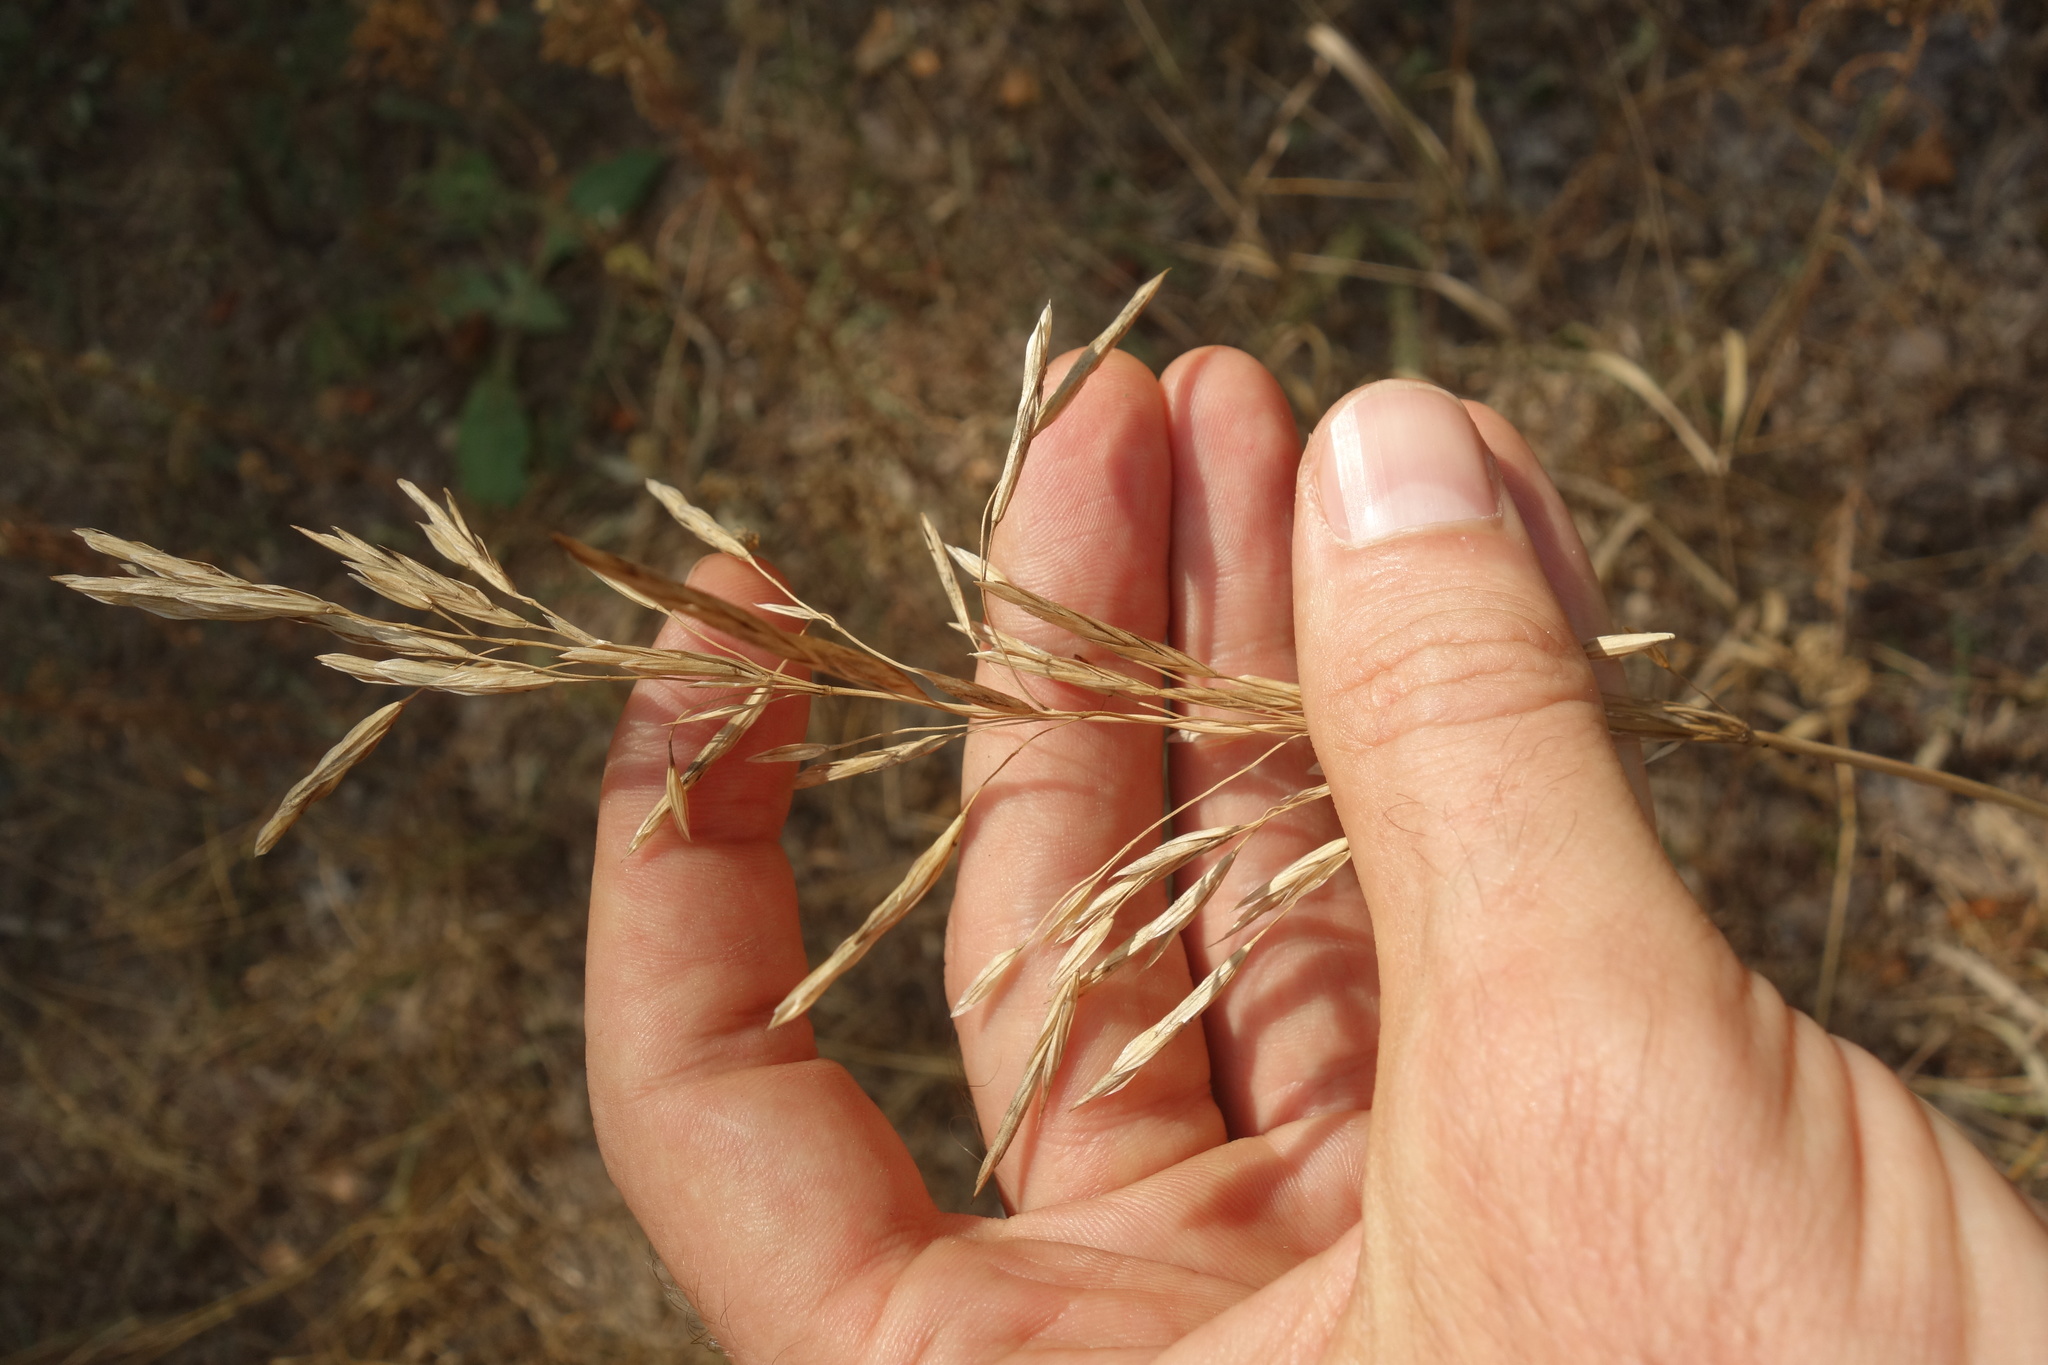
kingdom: Plantae
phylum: Tracheophyta
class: Liliopsida
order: Poales
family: Poaceae
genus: Bromus
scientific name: Bromus inermis
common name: Smooth brome
